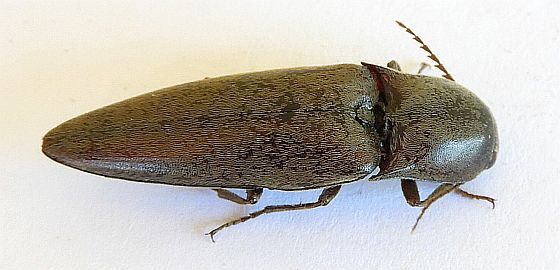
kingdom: Animalia
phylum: Arthropoda
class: Insecta
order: Coleoptera
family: Elateridae
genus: Orthostethus
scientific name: Orthostethus infuscatus
